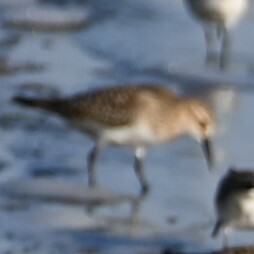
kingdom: Animalia
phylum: Chordata
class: Aves
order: Charadriiformes
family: Scolopacidae
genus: Calidris
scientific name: Calidris bairdii
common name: Baird's sandpiper
